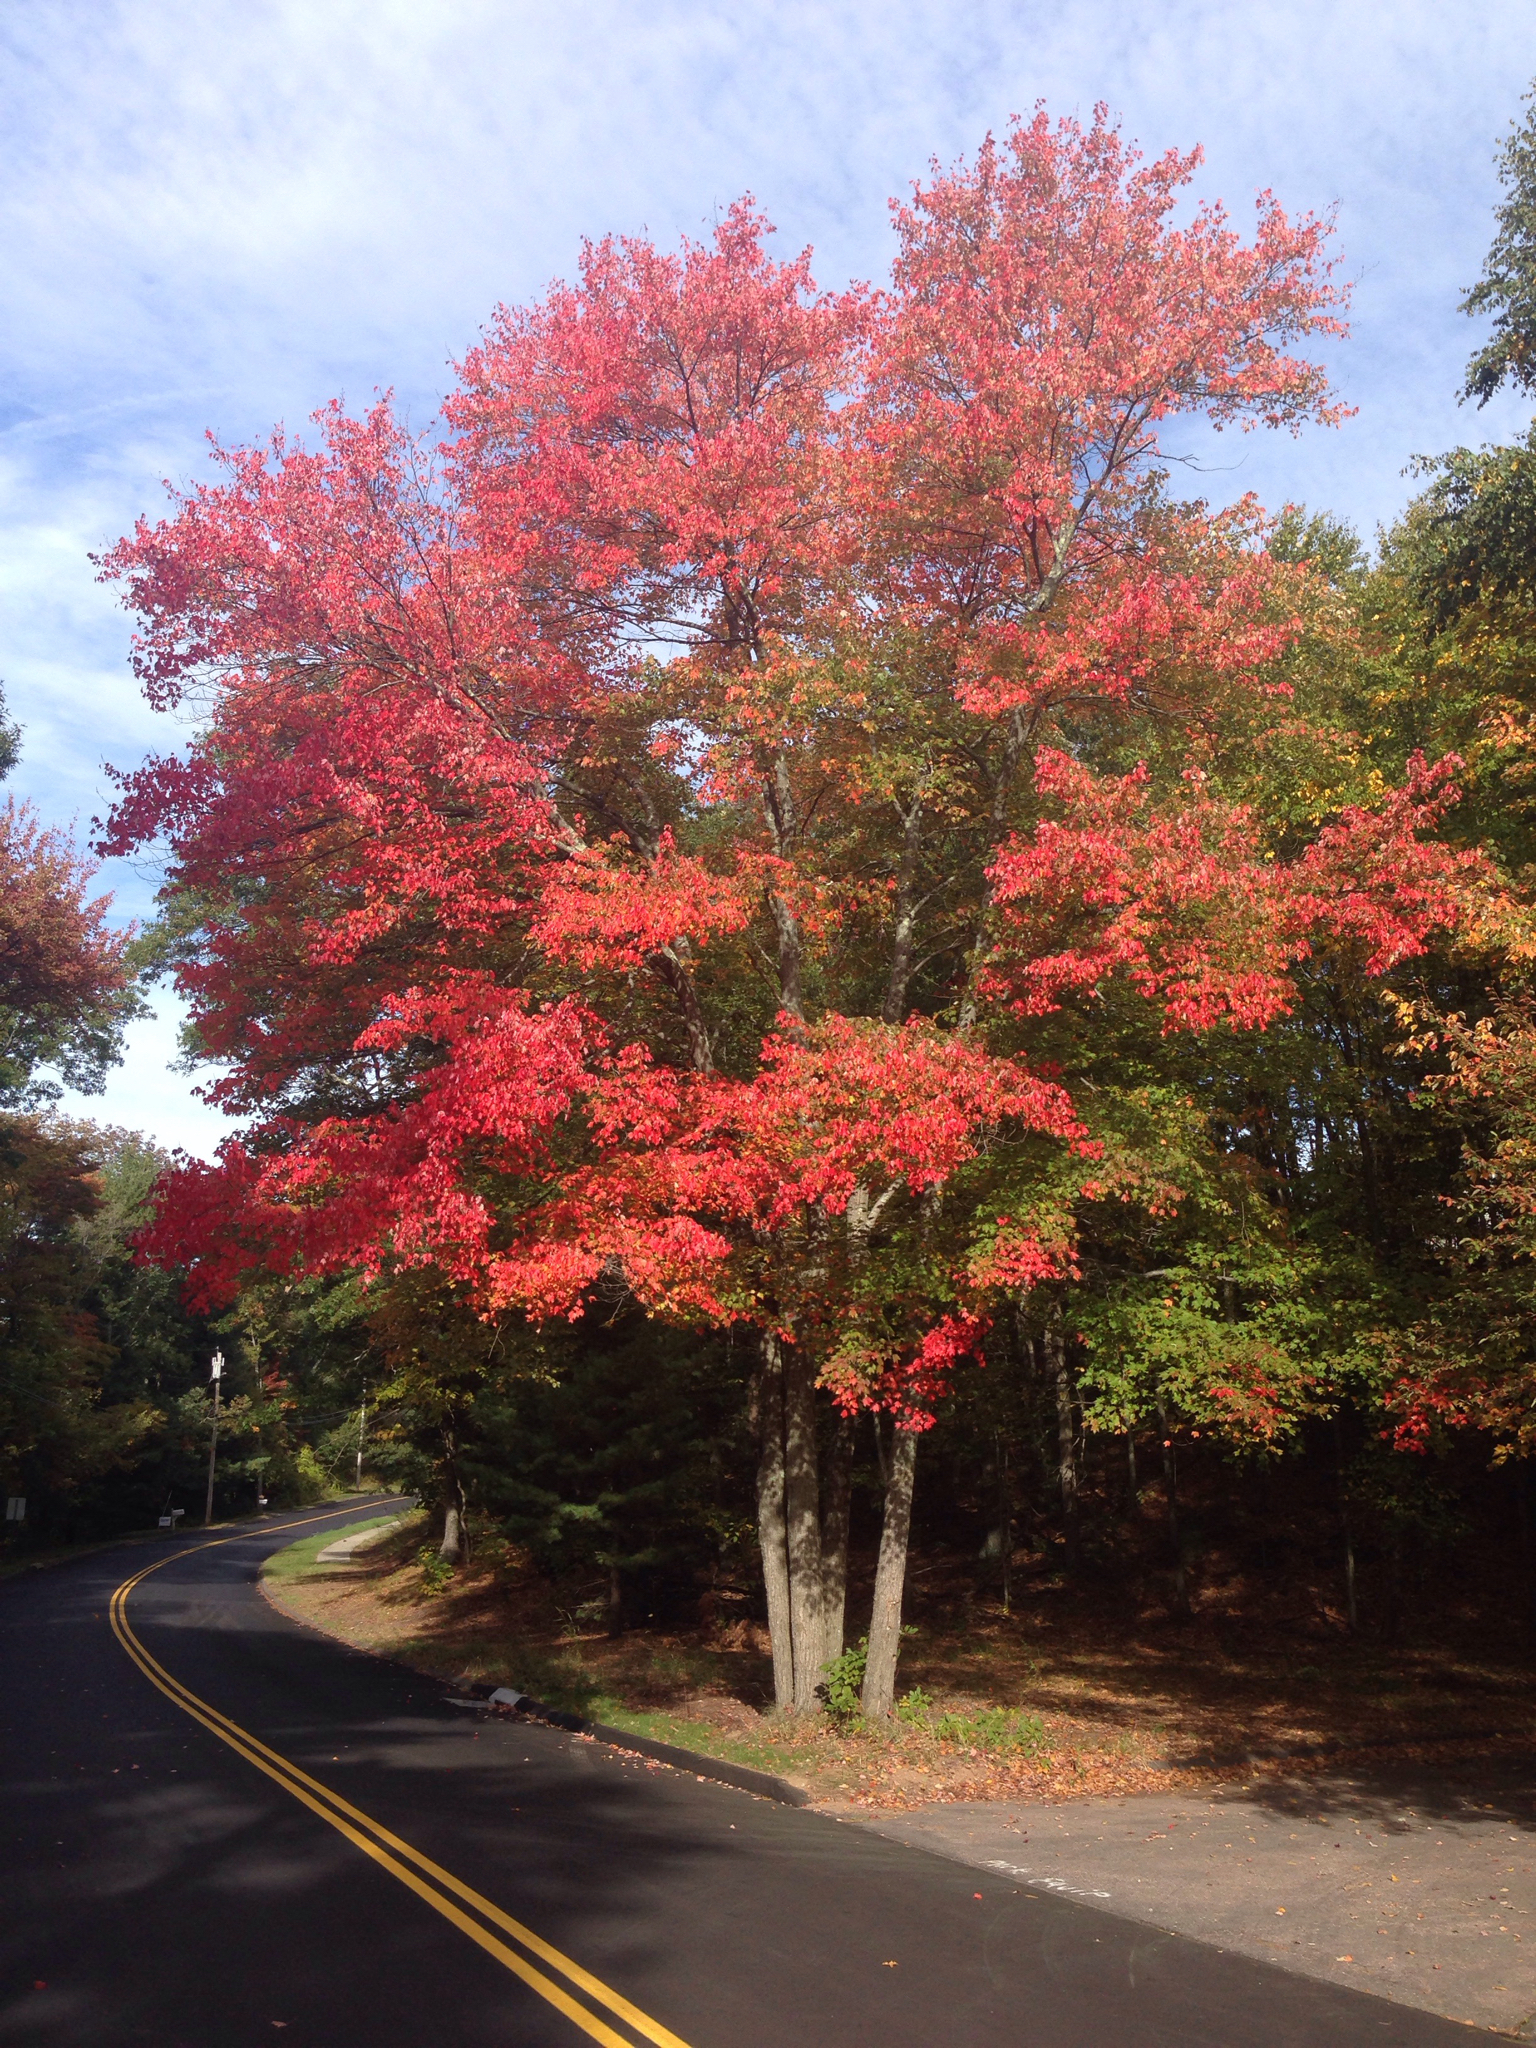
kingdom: Plantae
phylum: Tracheophyta
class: Magnoliopsida
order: Sapindales
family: Sapindaceae
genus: Acer
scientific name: Acer rubrum
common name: Red maple
